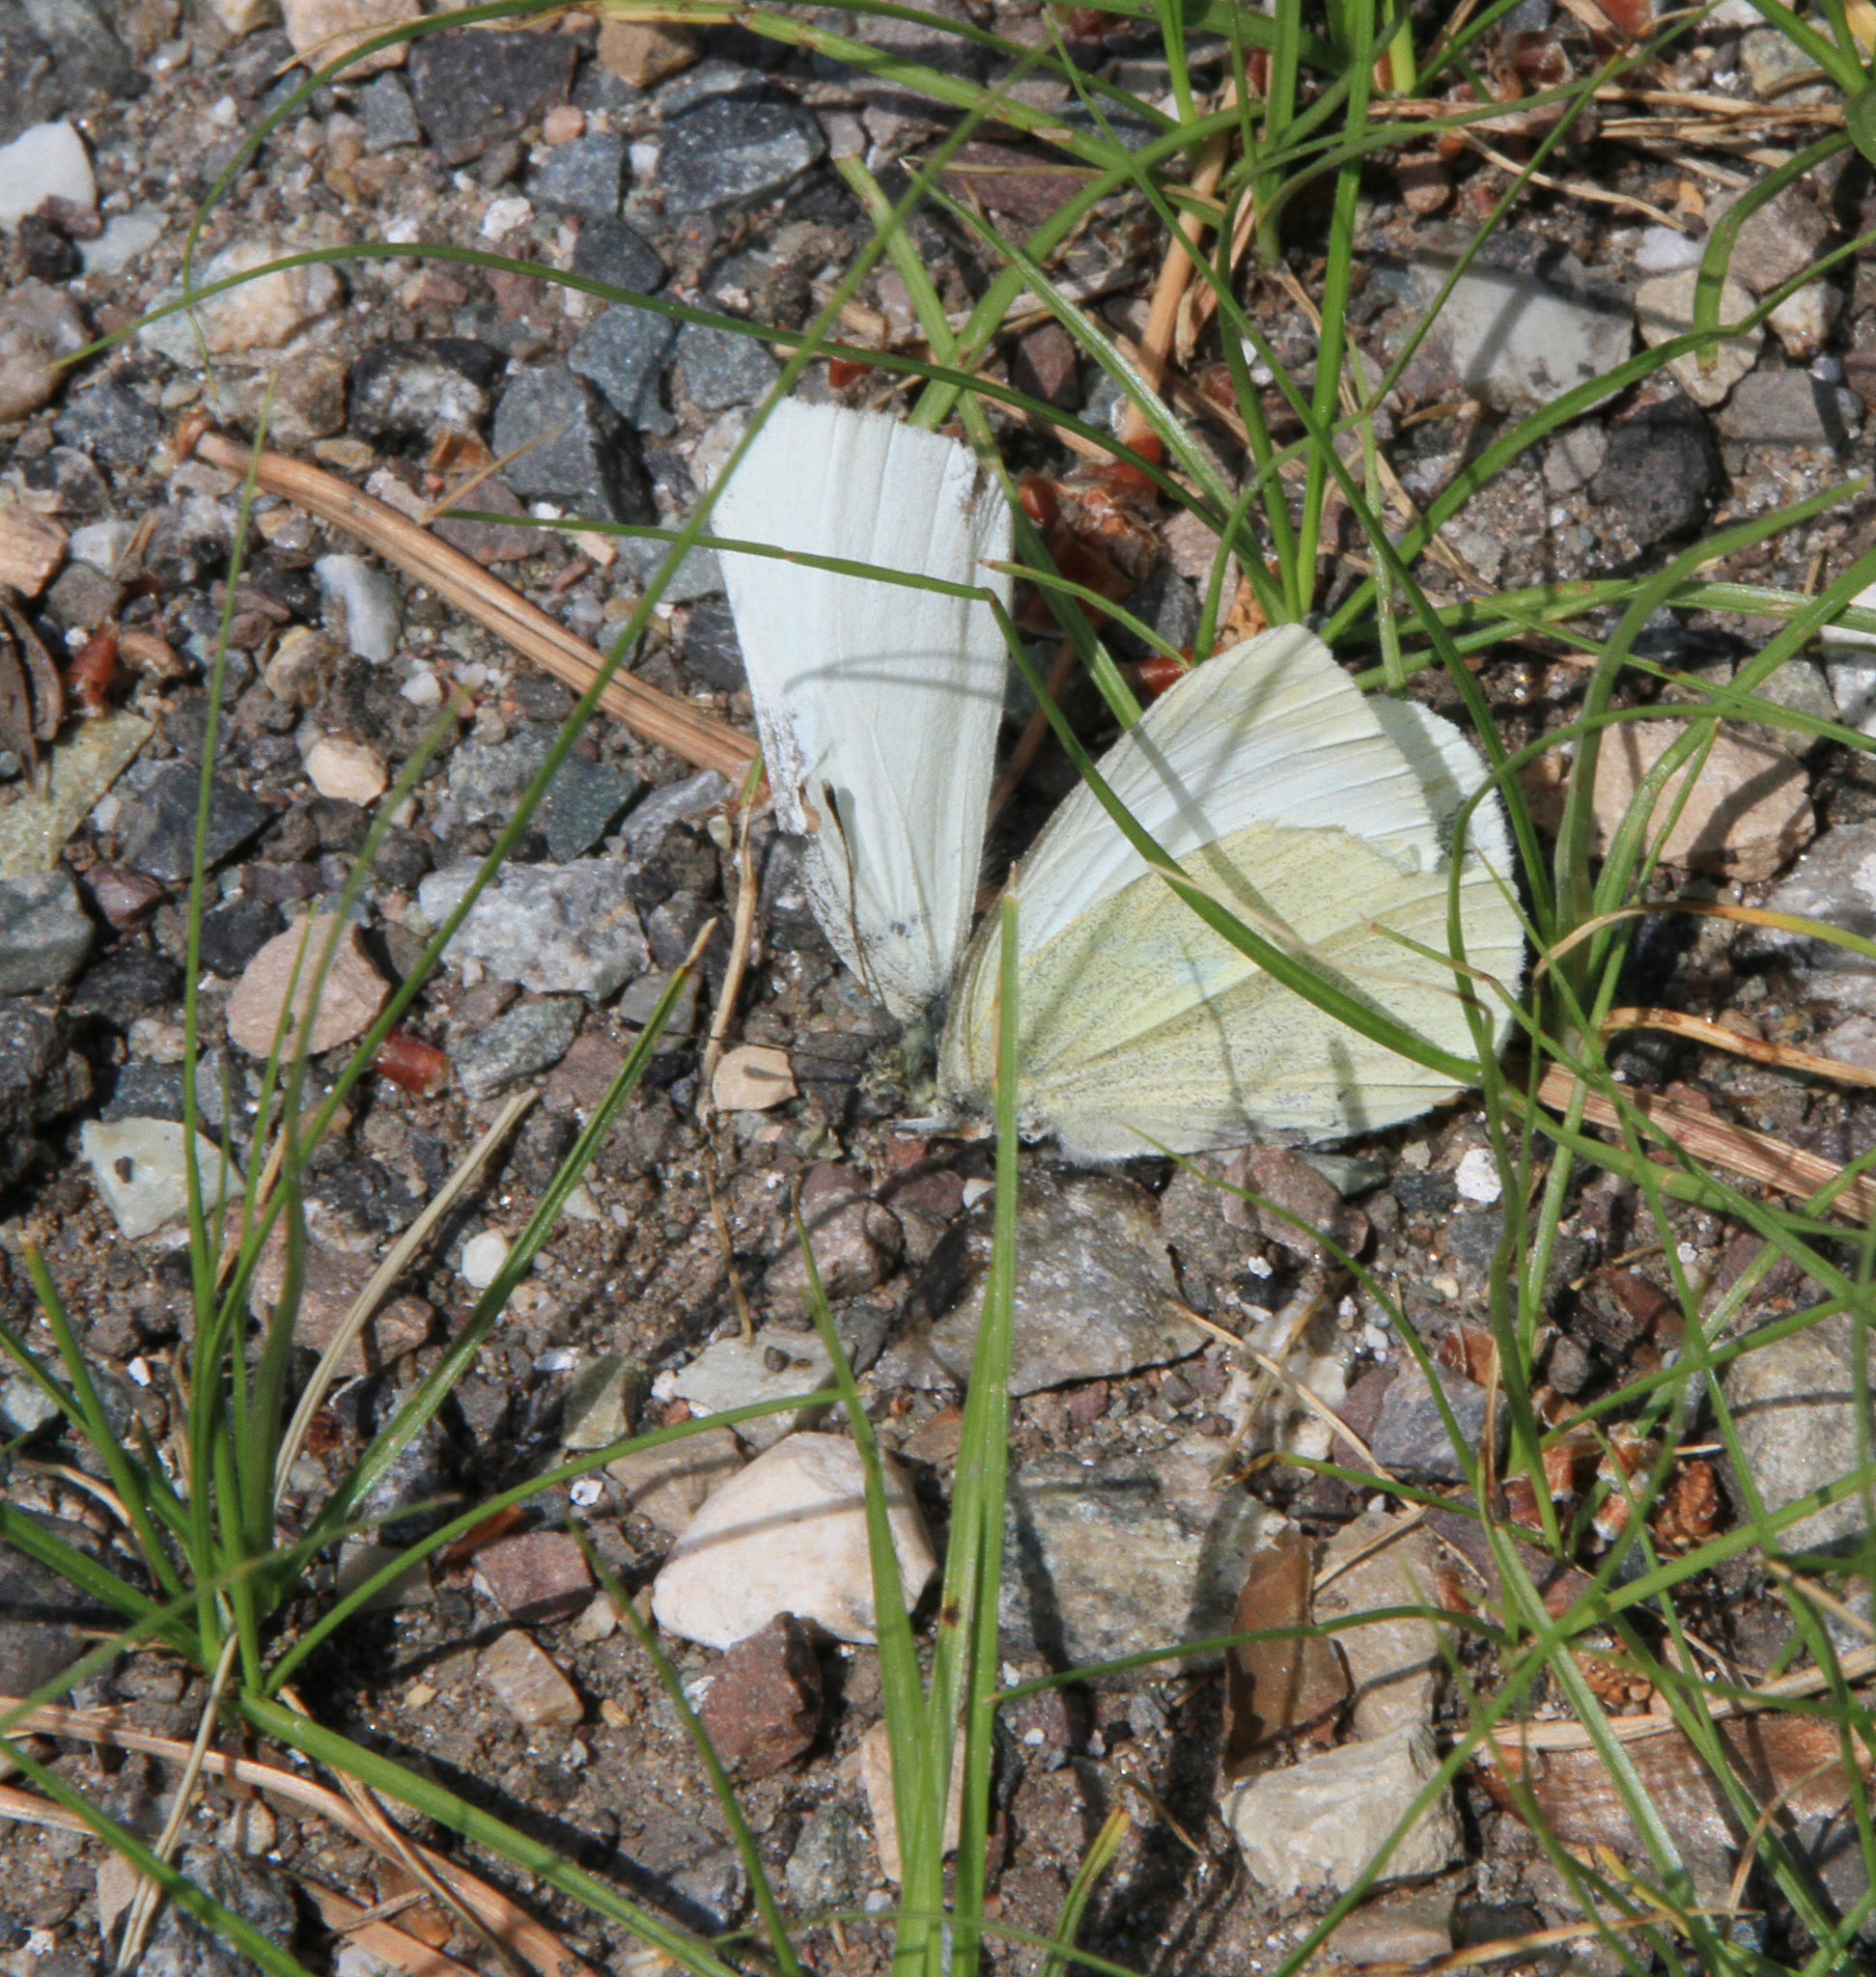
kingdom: Animalia
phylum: Arthropoda
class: Insecta
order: Lepidoptera
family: Pieridae
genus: Pieris
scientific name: Pieris rapae
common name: Small white
